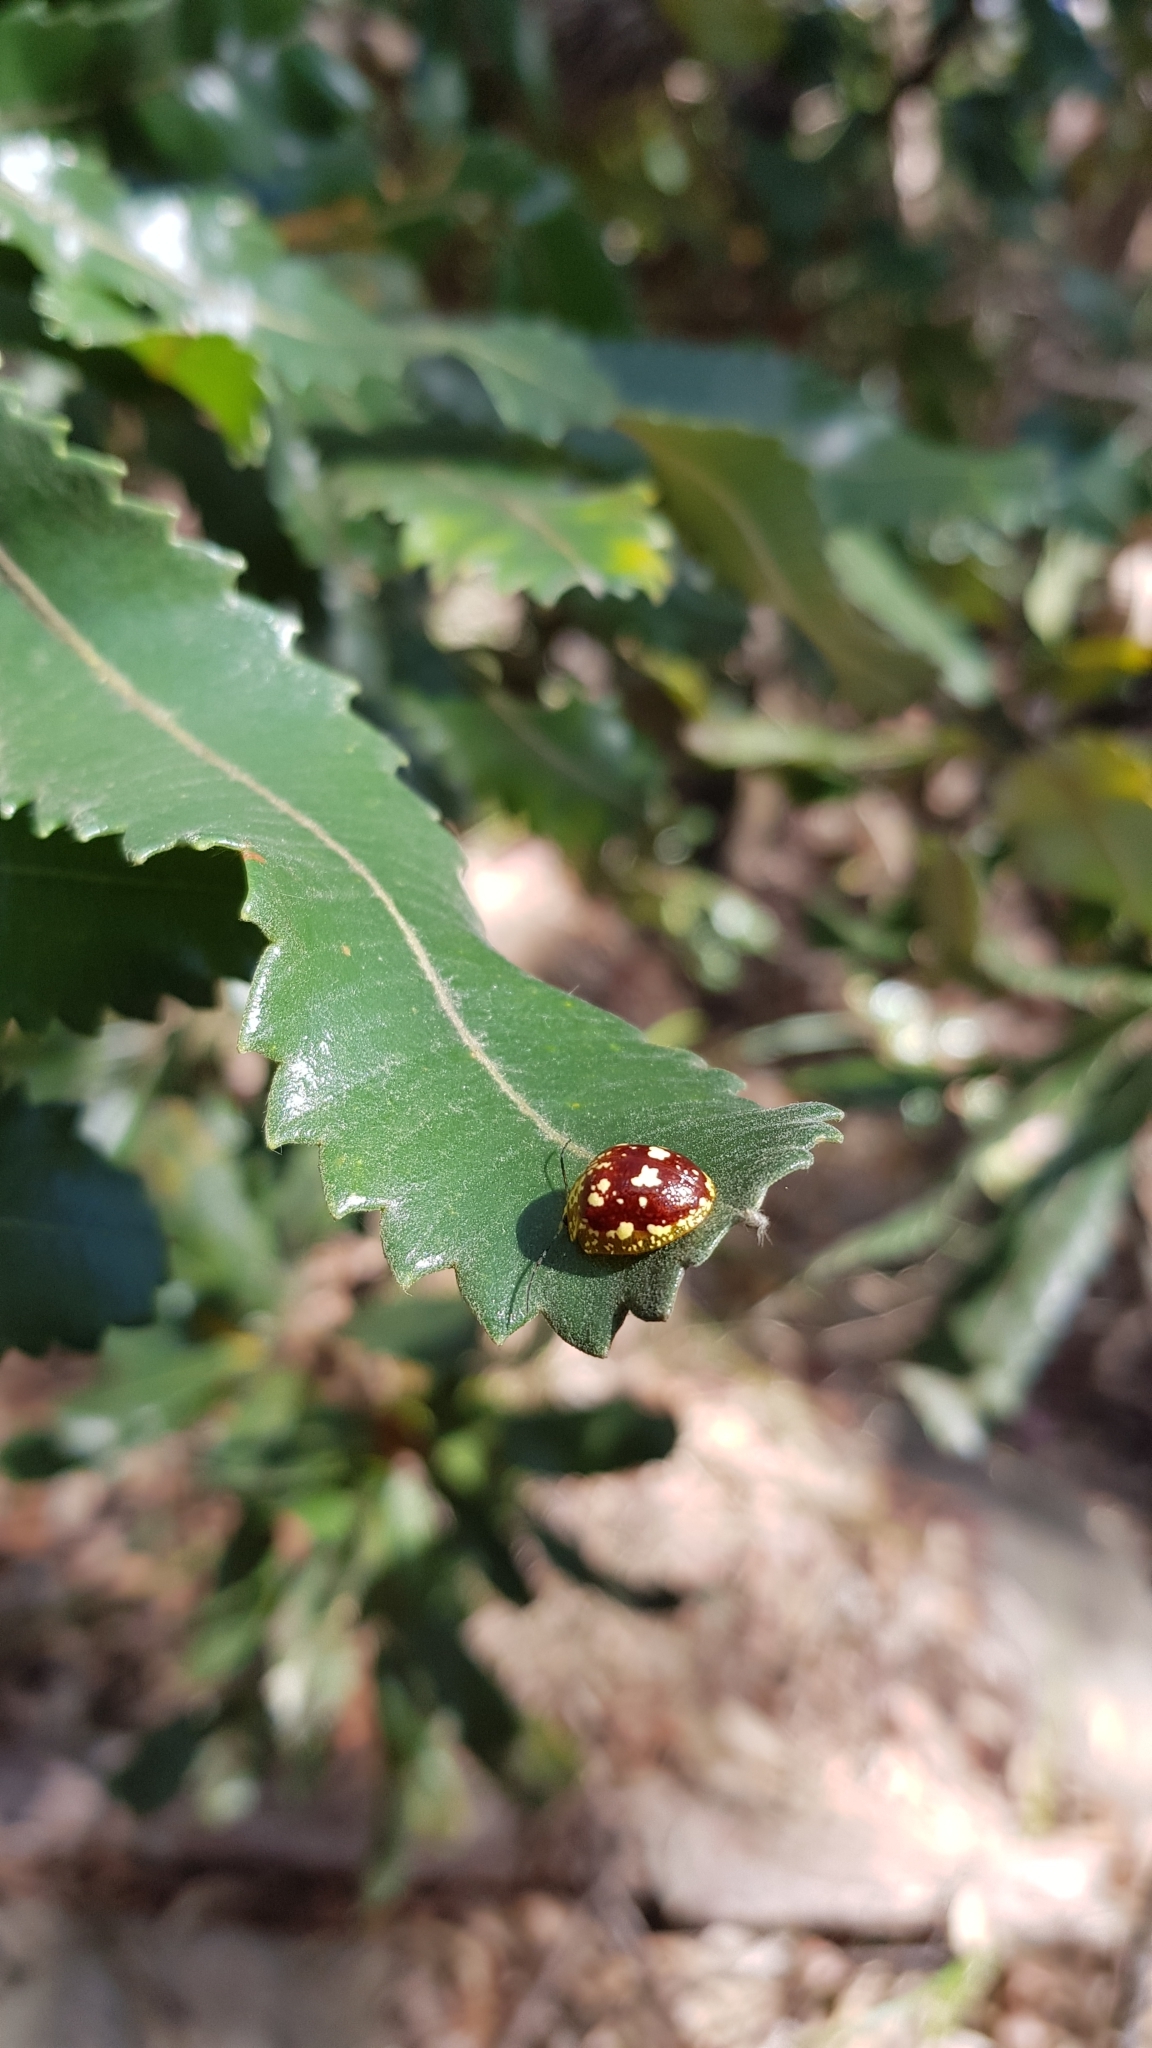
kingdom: Animalia
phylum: Arthropoda
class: Insecta
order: Coleoptera
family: Chrysomelidae
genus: Paropsis
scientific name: Paropsis maculata
